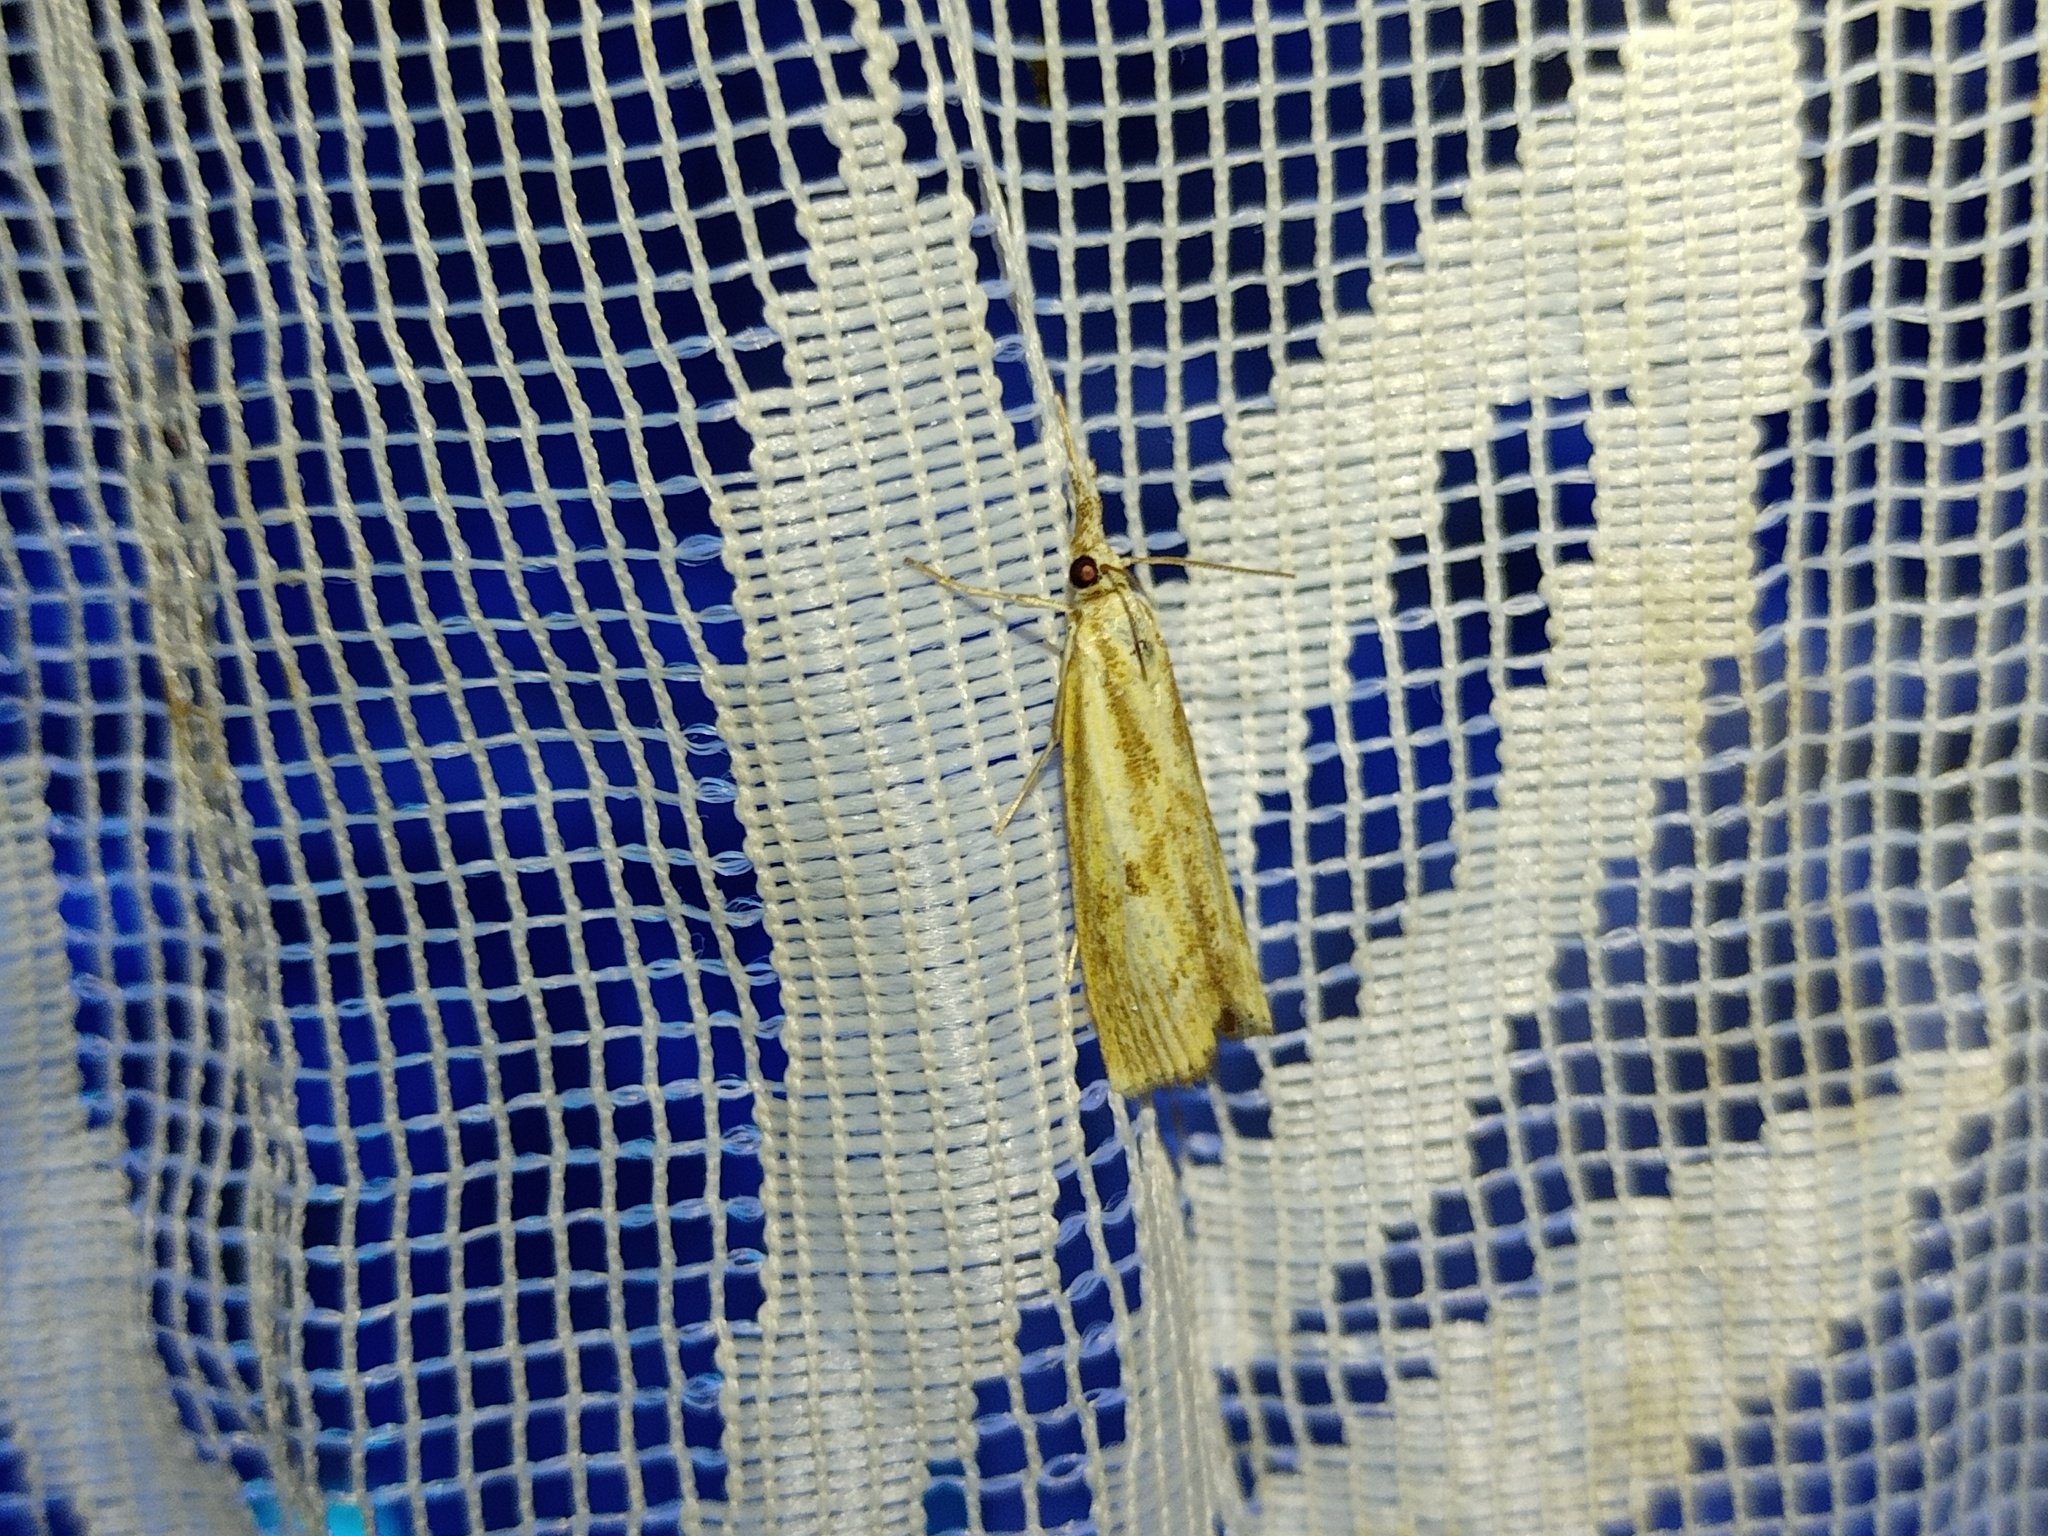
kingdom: Animalia
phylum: Arthropoda
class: Insecta
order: Lepidoptera
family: Crambidae
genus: Agriphila
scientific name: Agriphila inquinatella
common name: Barred grass-veneer
